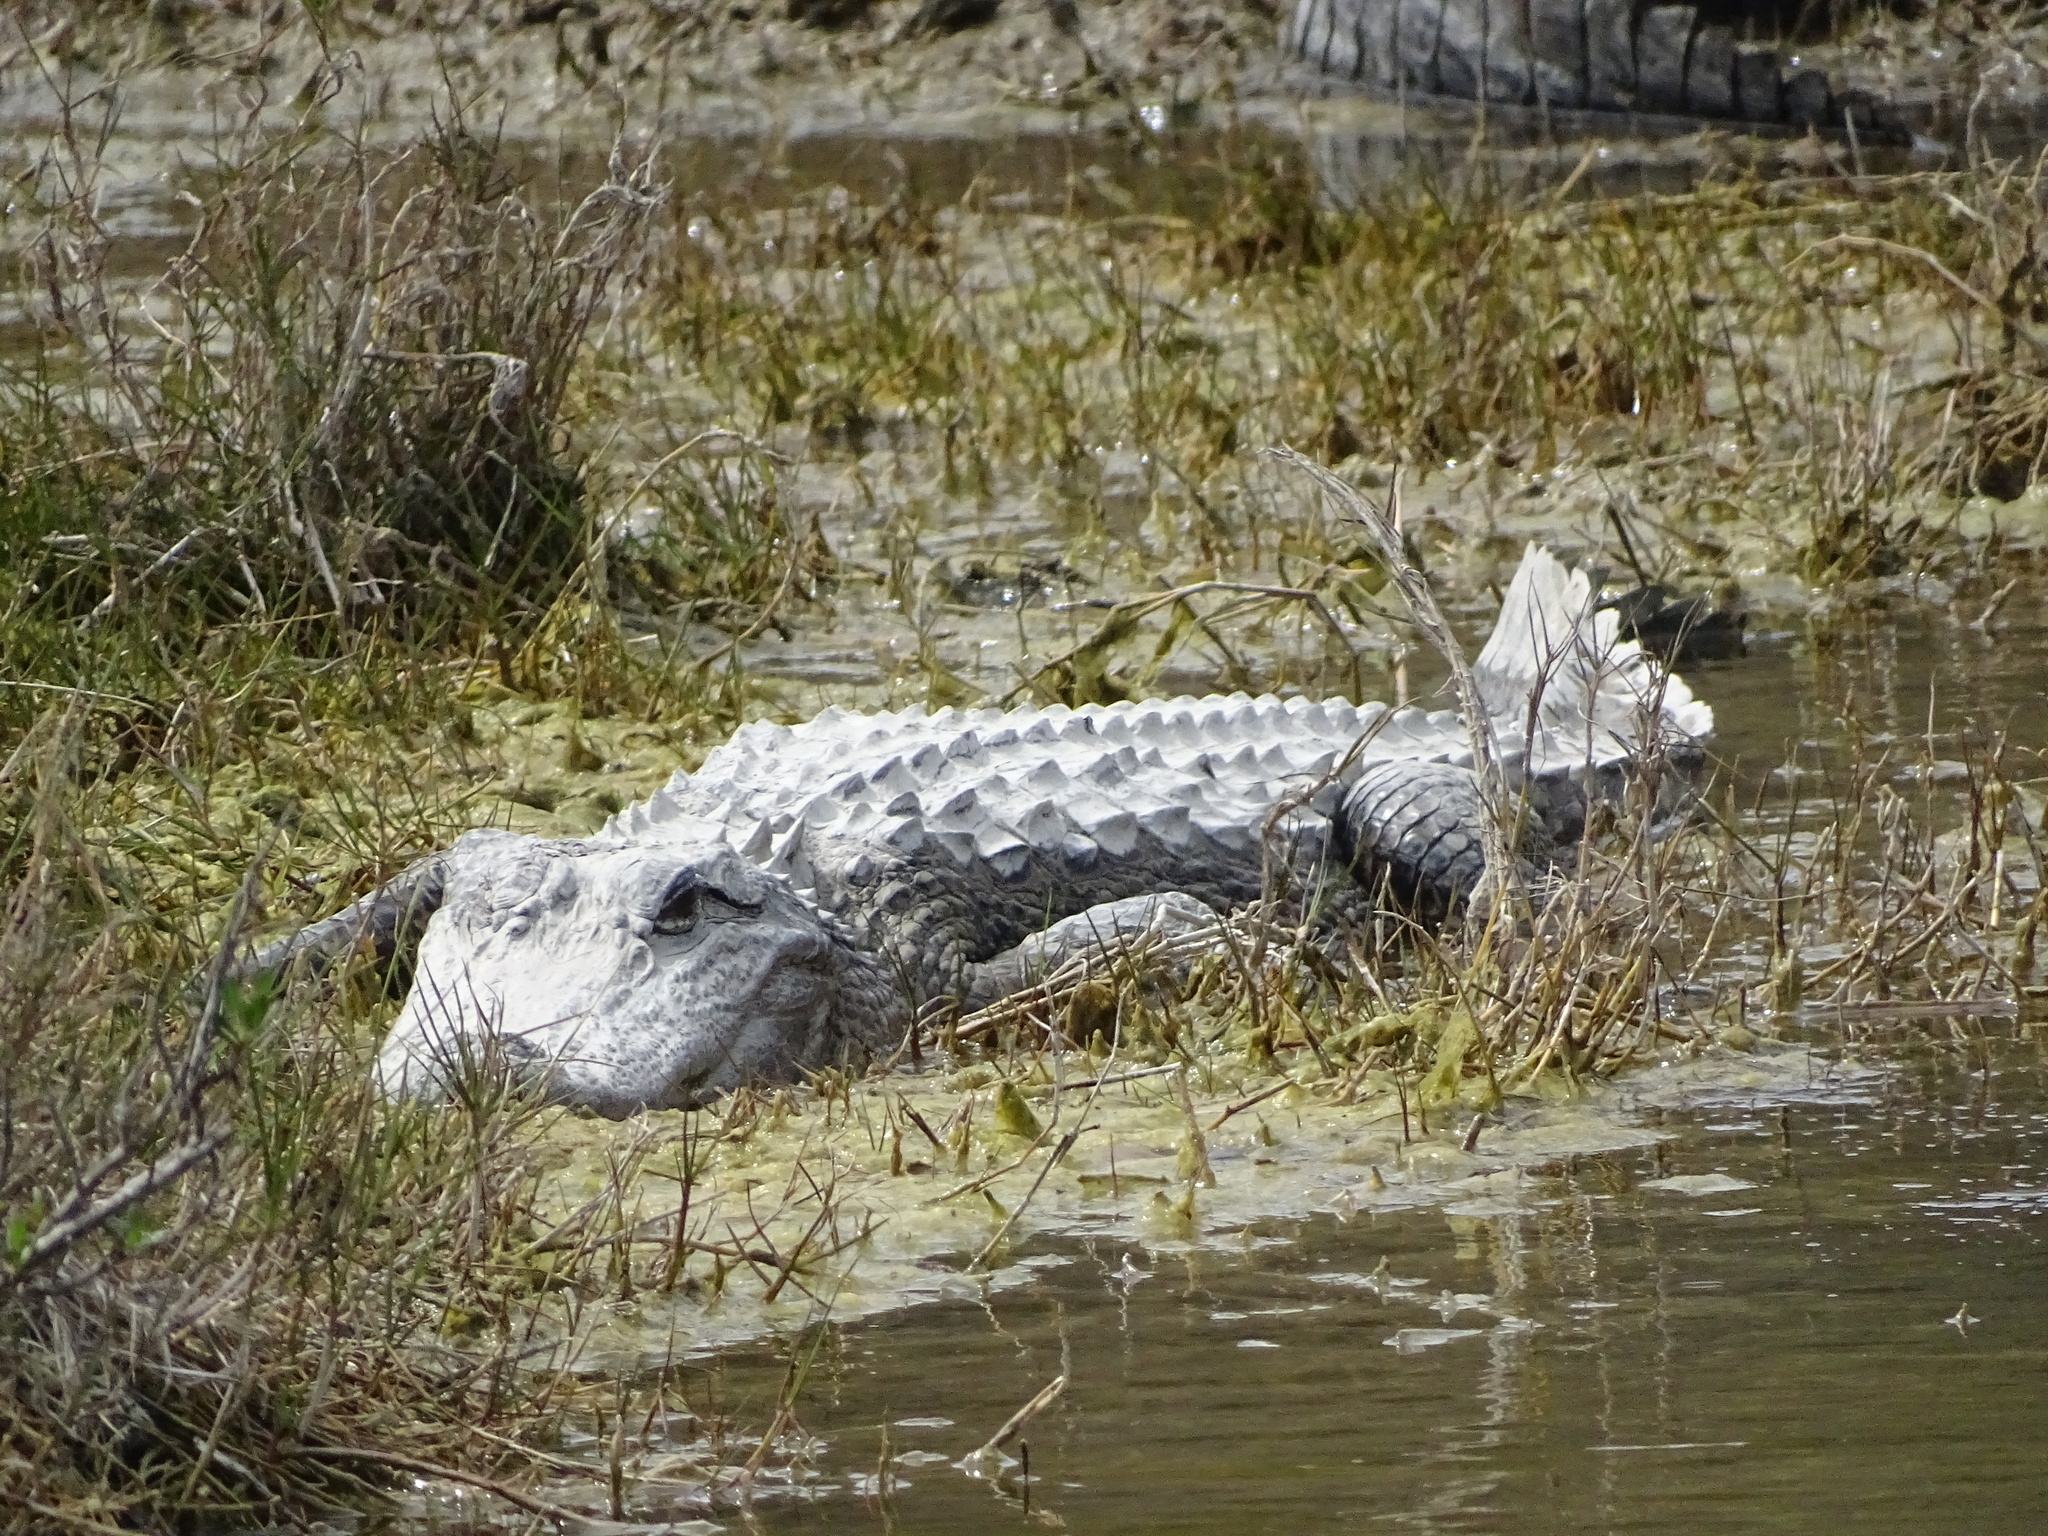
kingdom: Animalia
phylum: Chordata
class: Crocodylia
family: Alligatoridae
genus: Alligator
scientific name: Alligator mississippiensis
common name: American alligator
